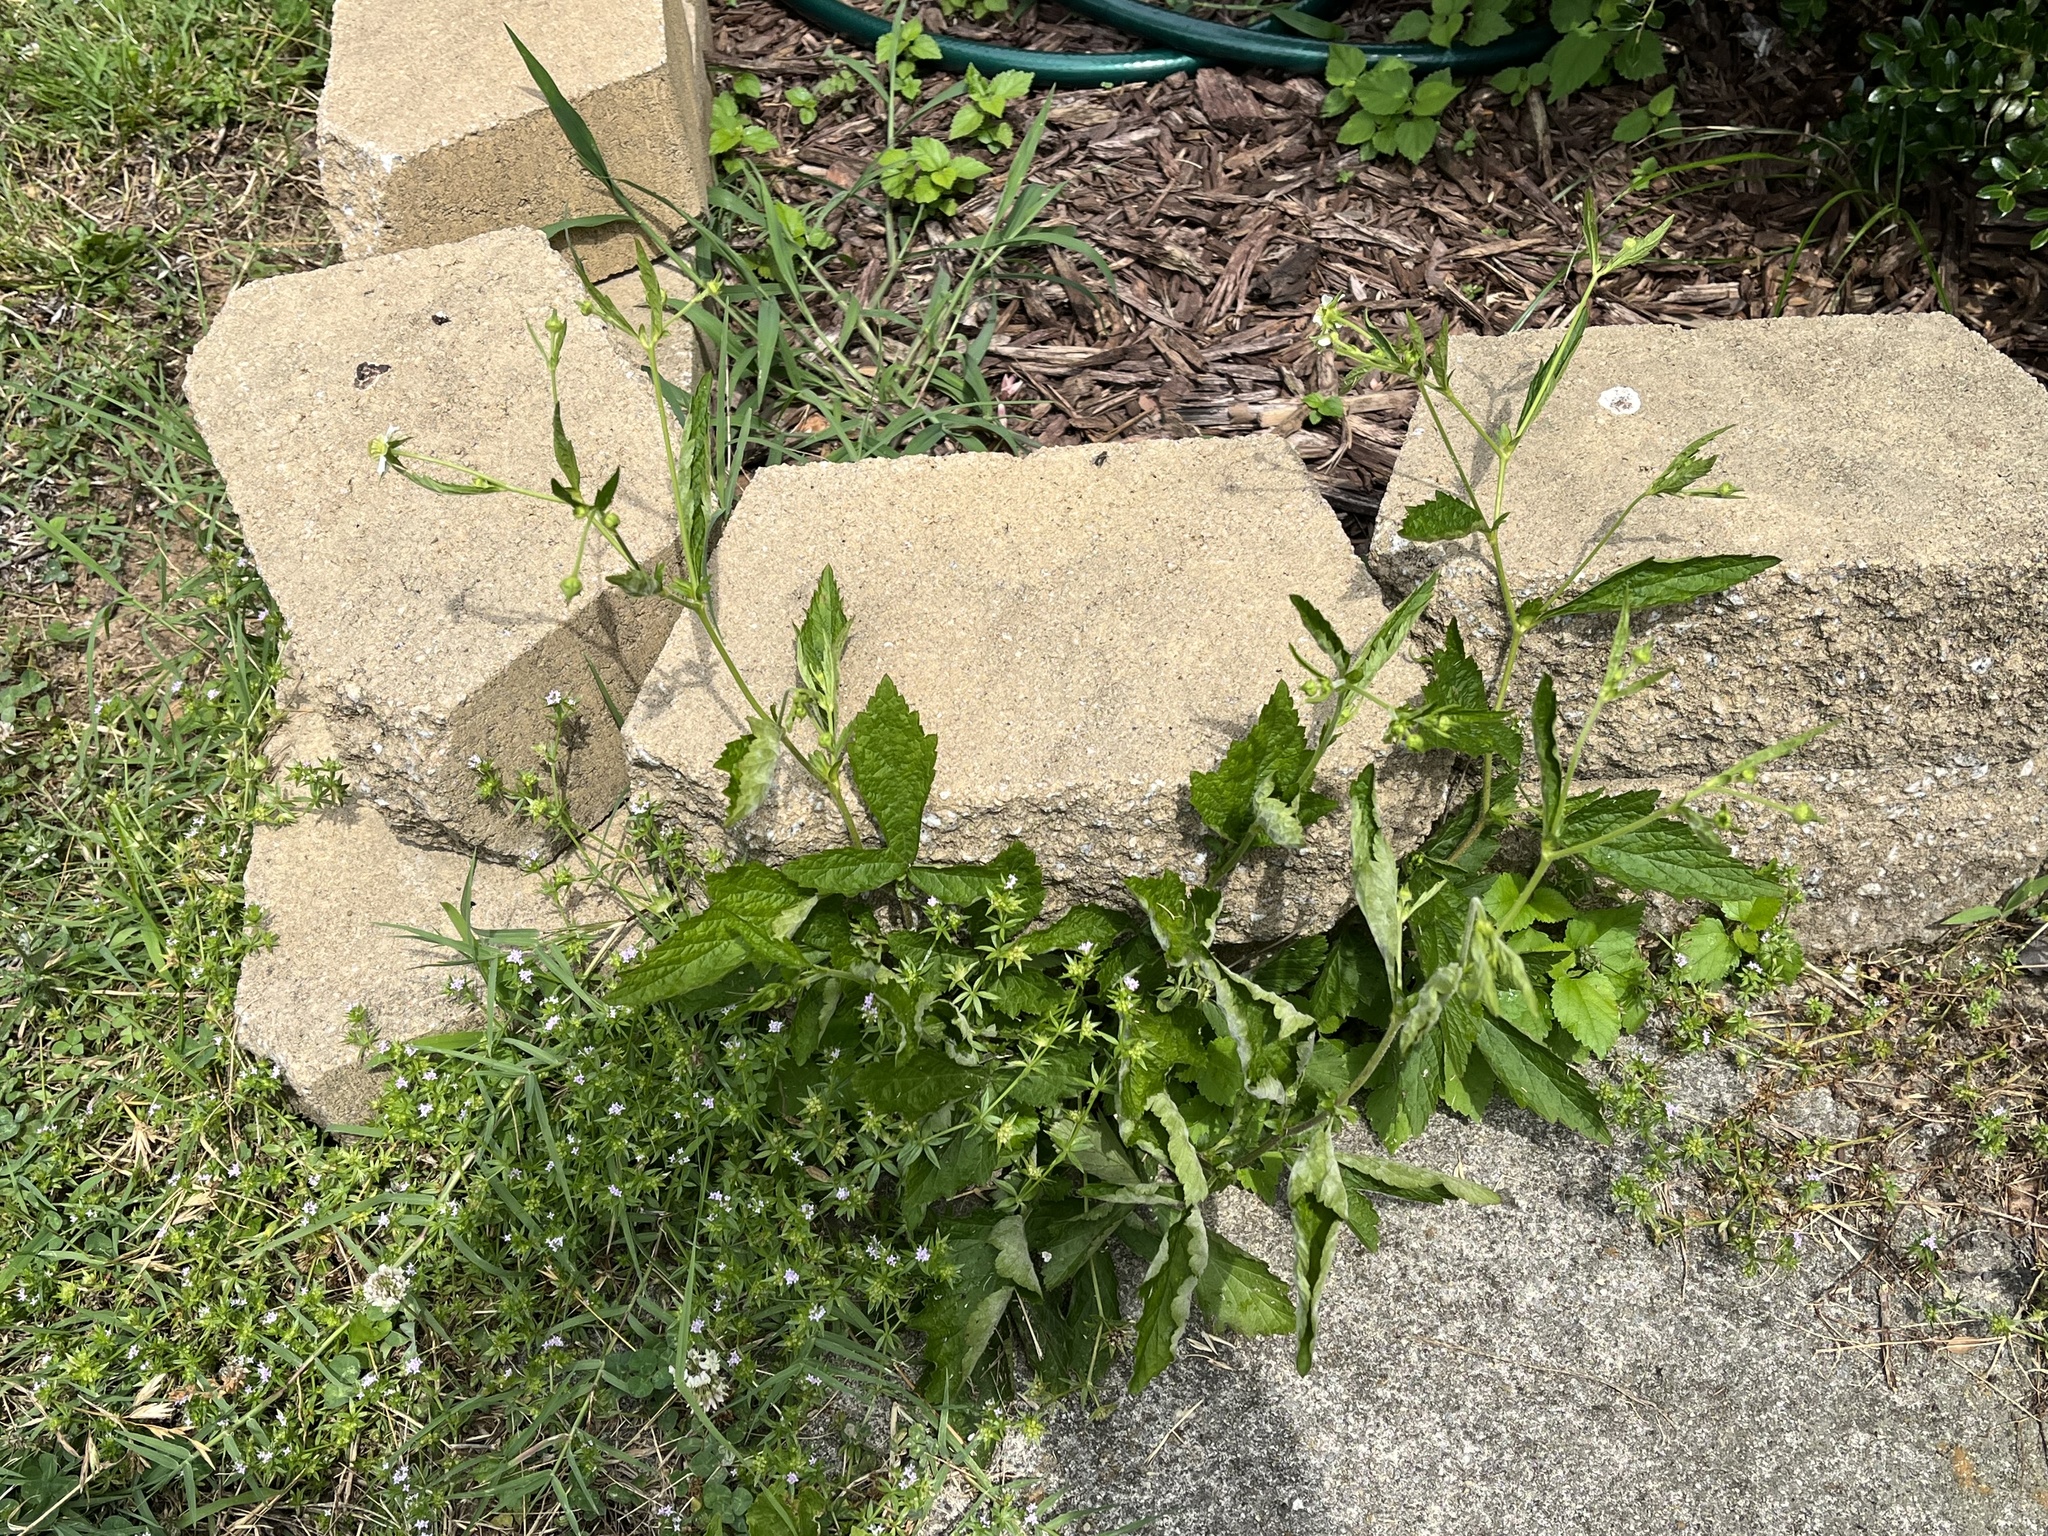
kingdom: Plantae
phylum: Tracheophyta
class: Magnoliopsida
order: Rosales
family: Rosaceae
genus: Geum
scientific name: Geum canadense
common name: White avens
